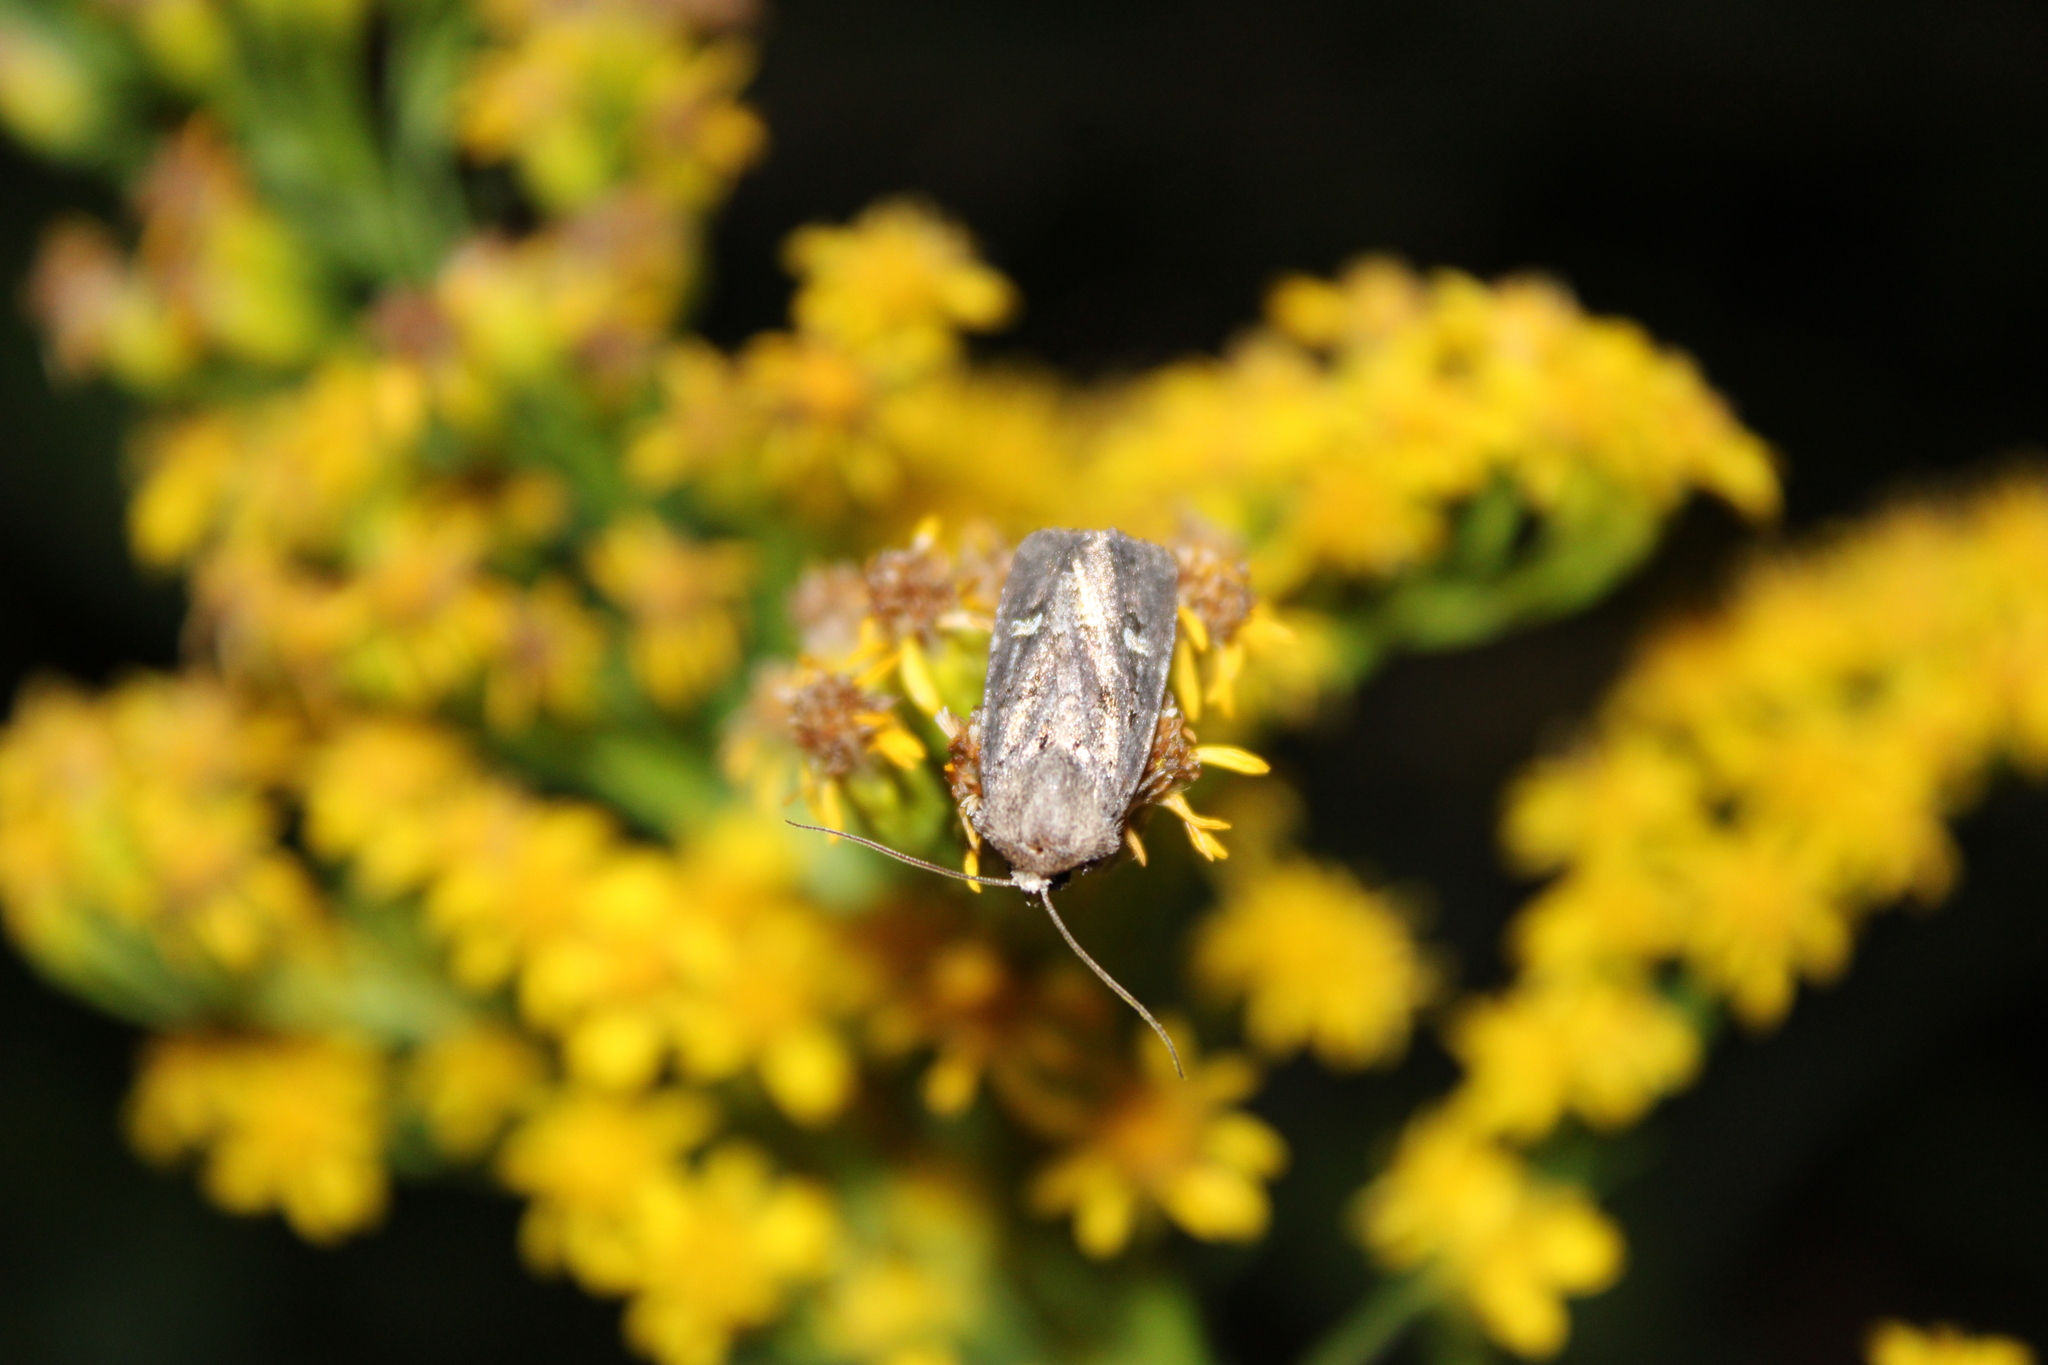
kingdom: Animalia
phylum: Arthropoda
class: Insecta
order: Lepidoptera
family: Noctuidae
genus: Lacinipolia
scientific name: Lacinipolia renigera
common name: Kidney-spotted minor
